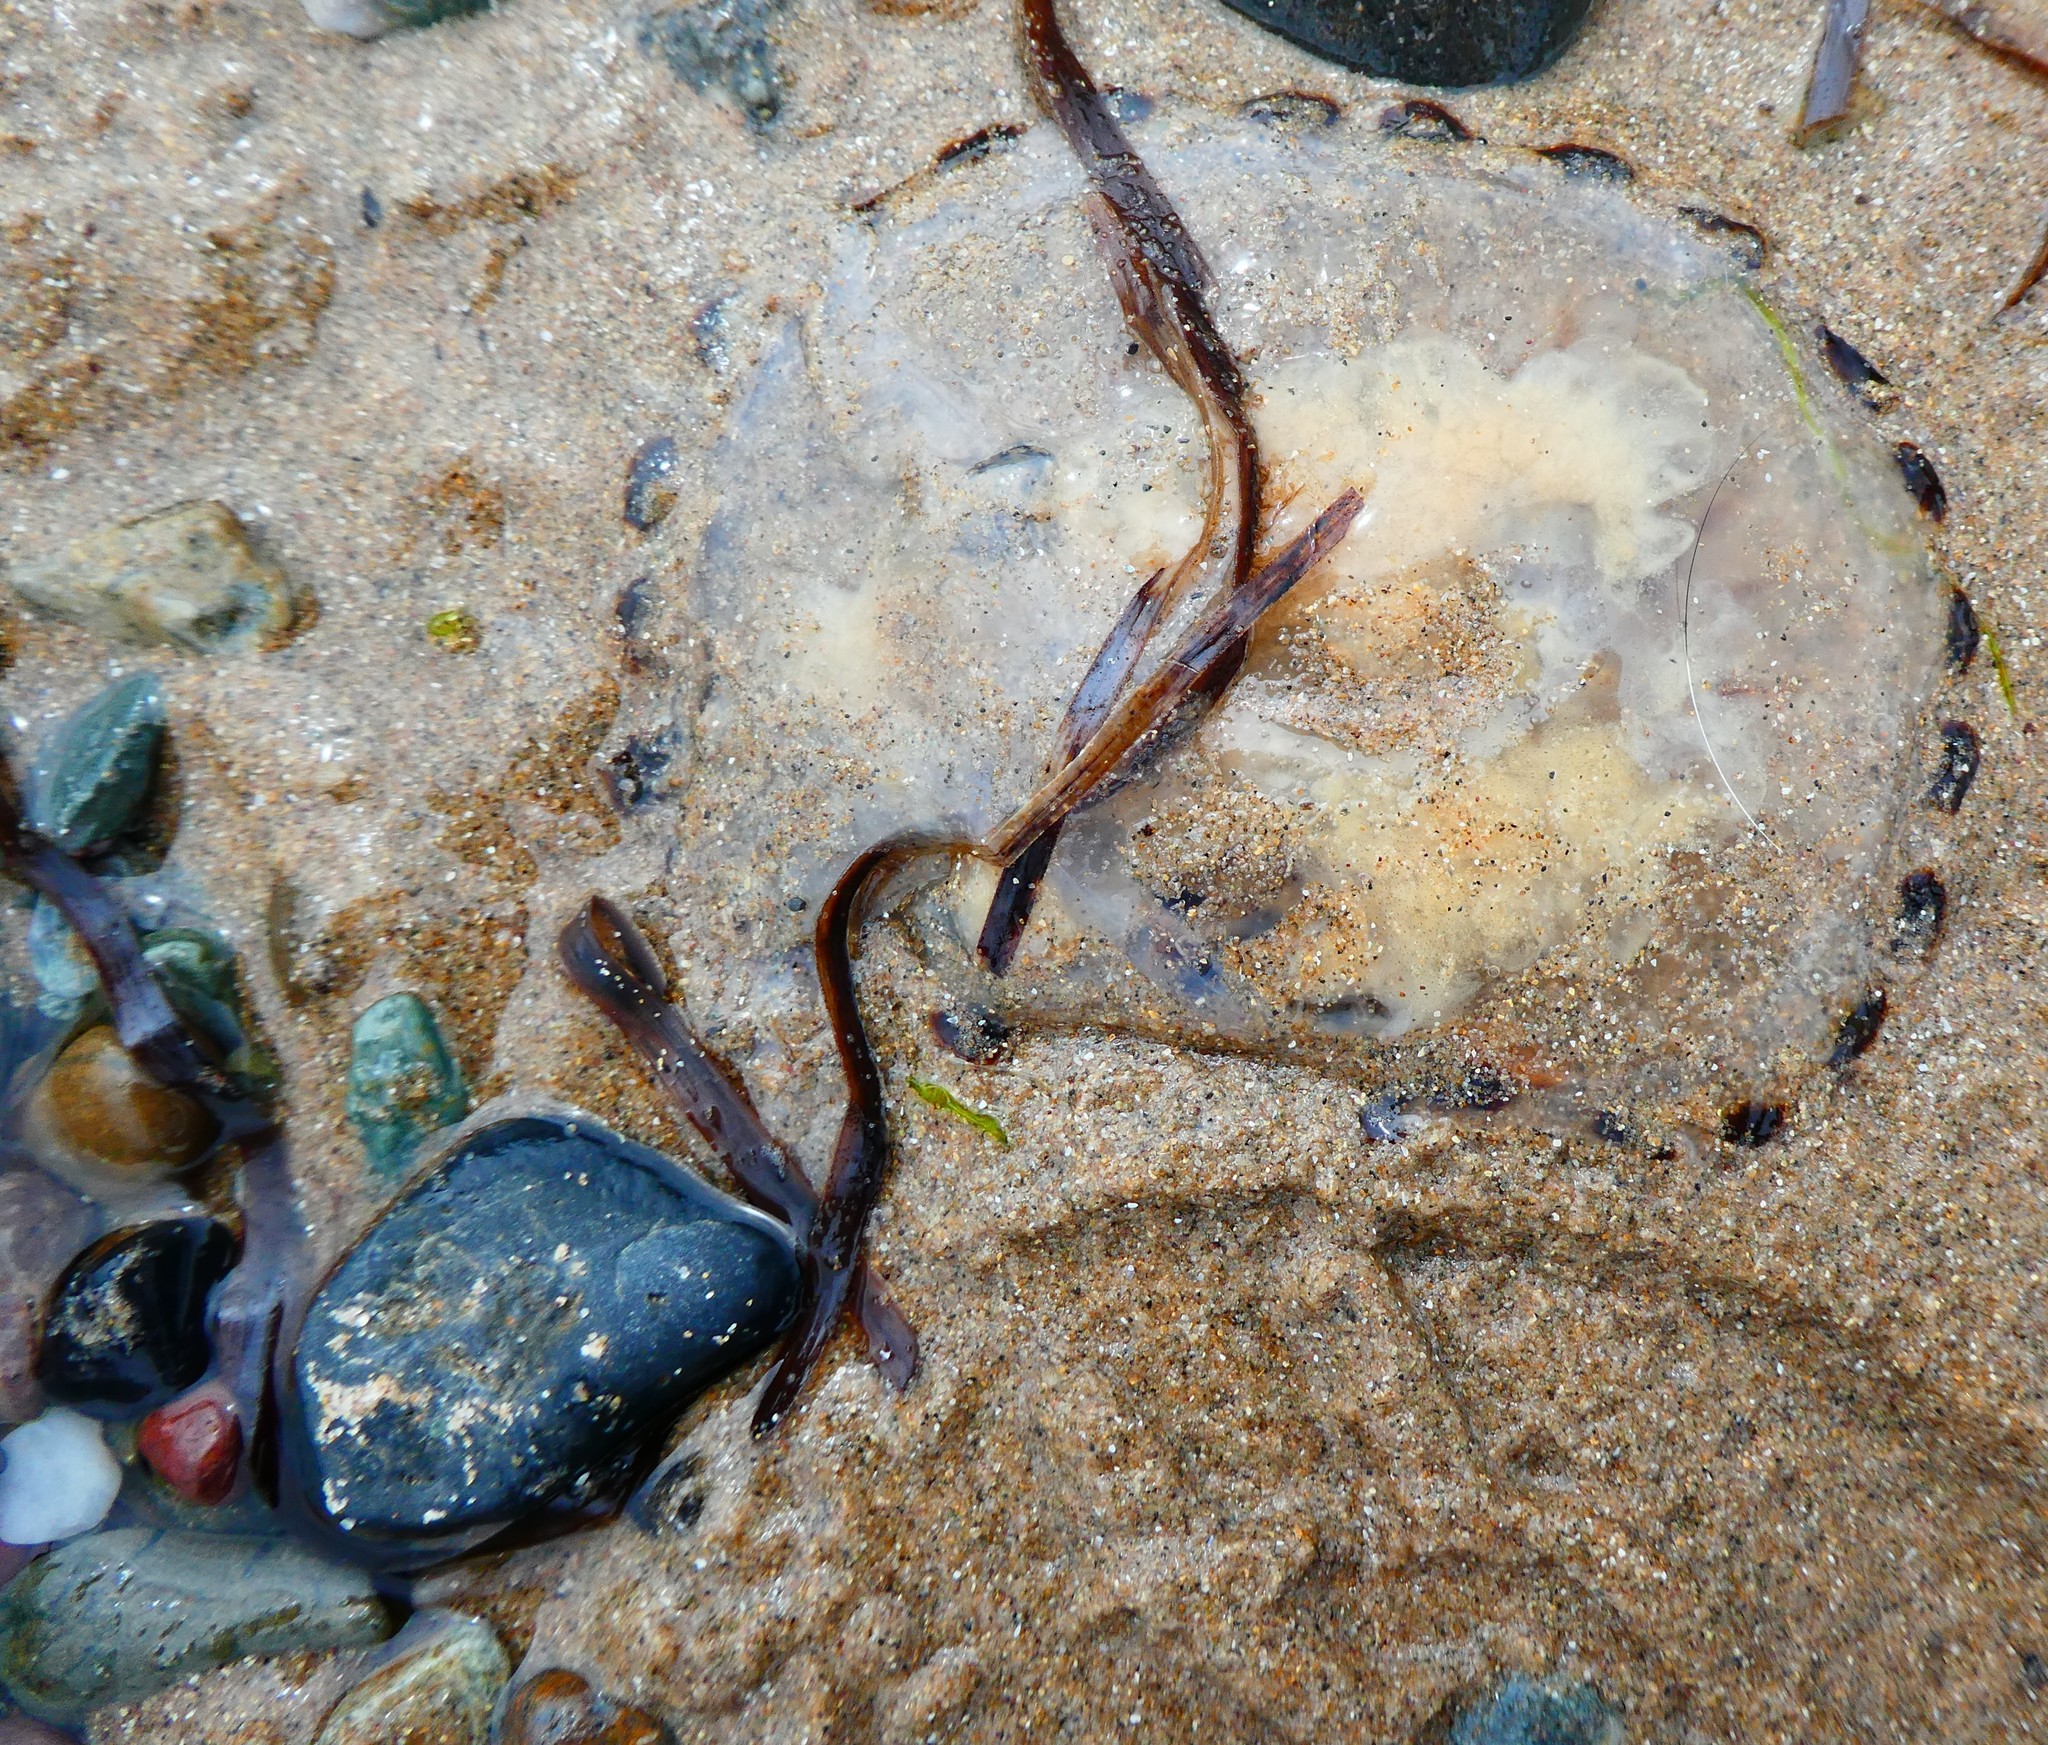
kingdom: Animalia
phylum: Cnidaria
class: Scyphozoa
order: Semaeostomeae
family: Pelagiidae
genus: Chrysaora
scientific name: Chrysaora hysoscella
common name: Compass jellyfish
